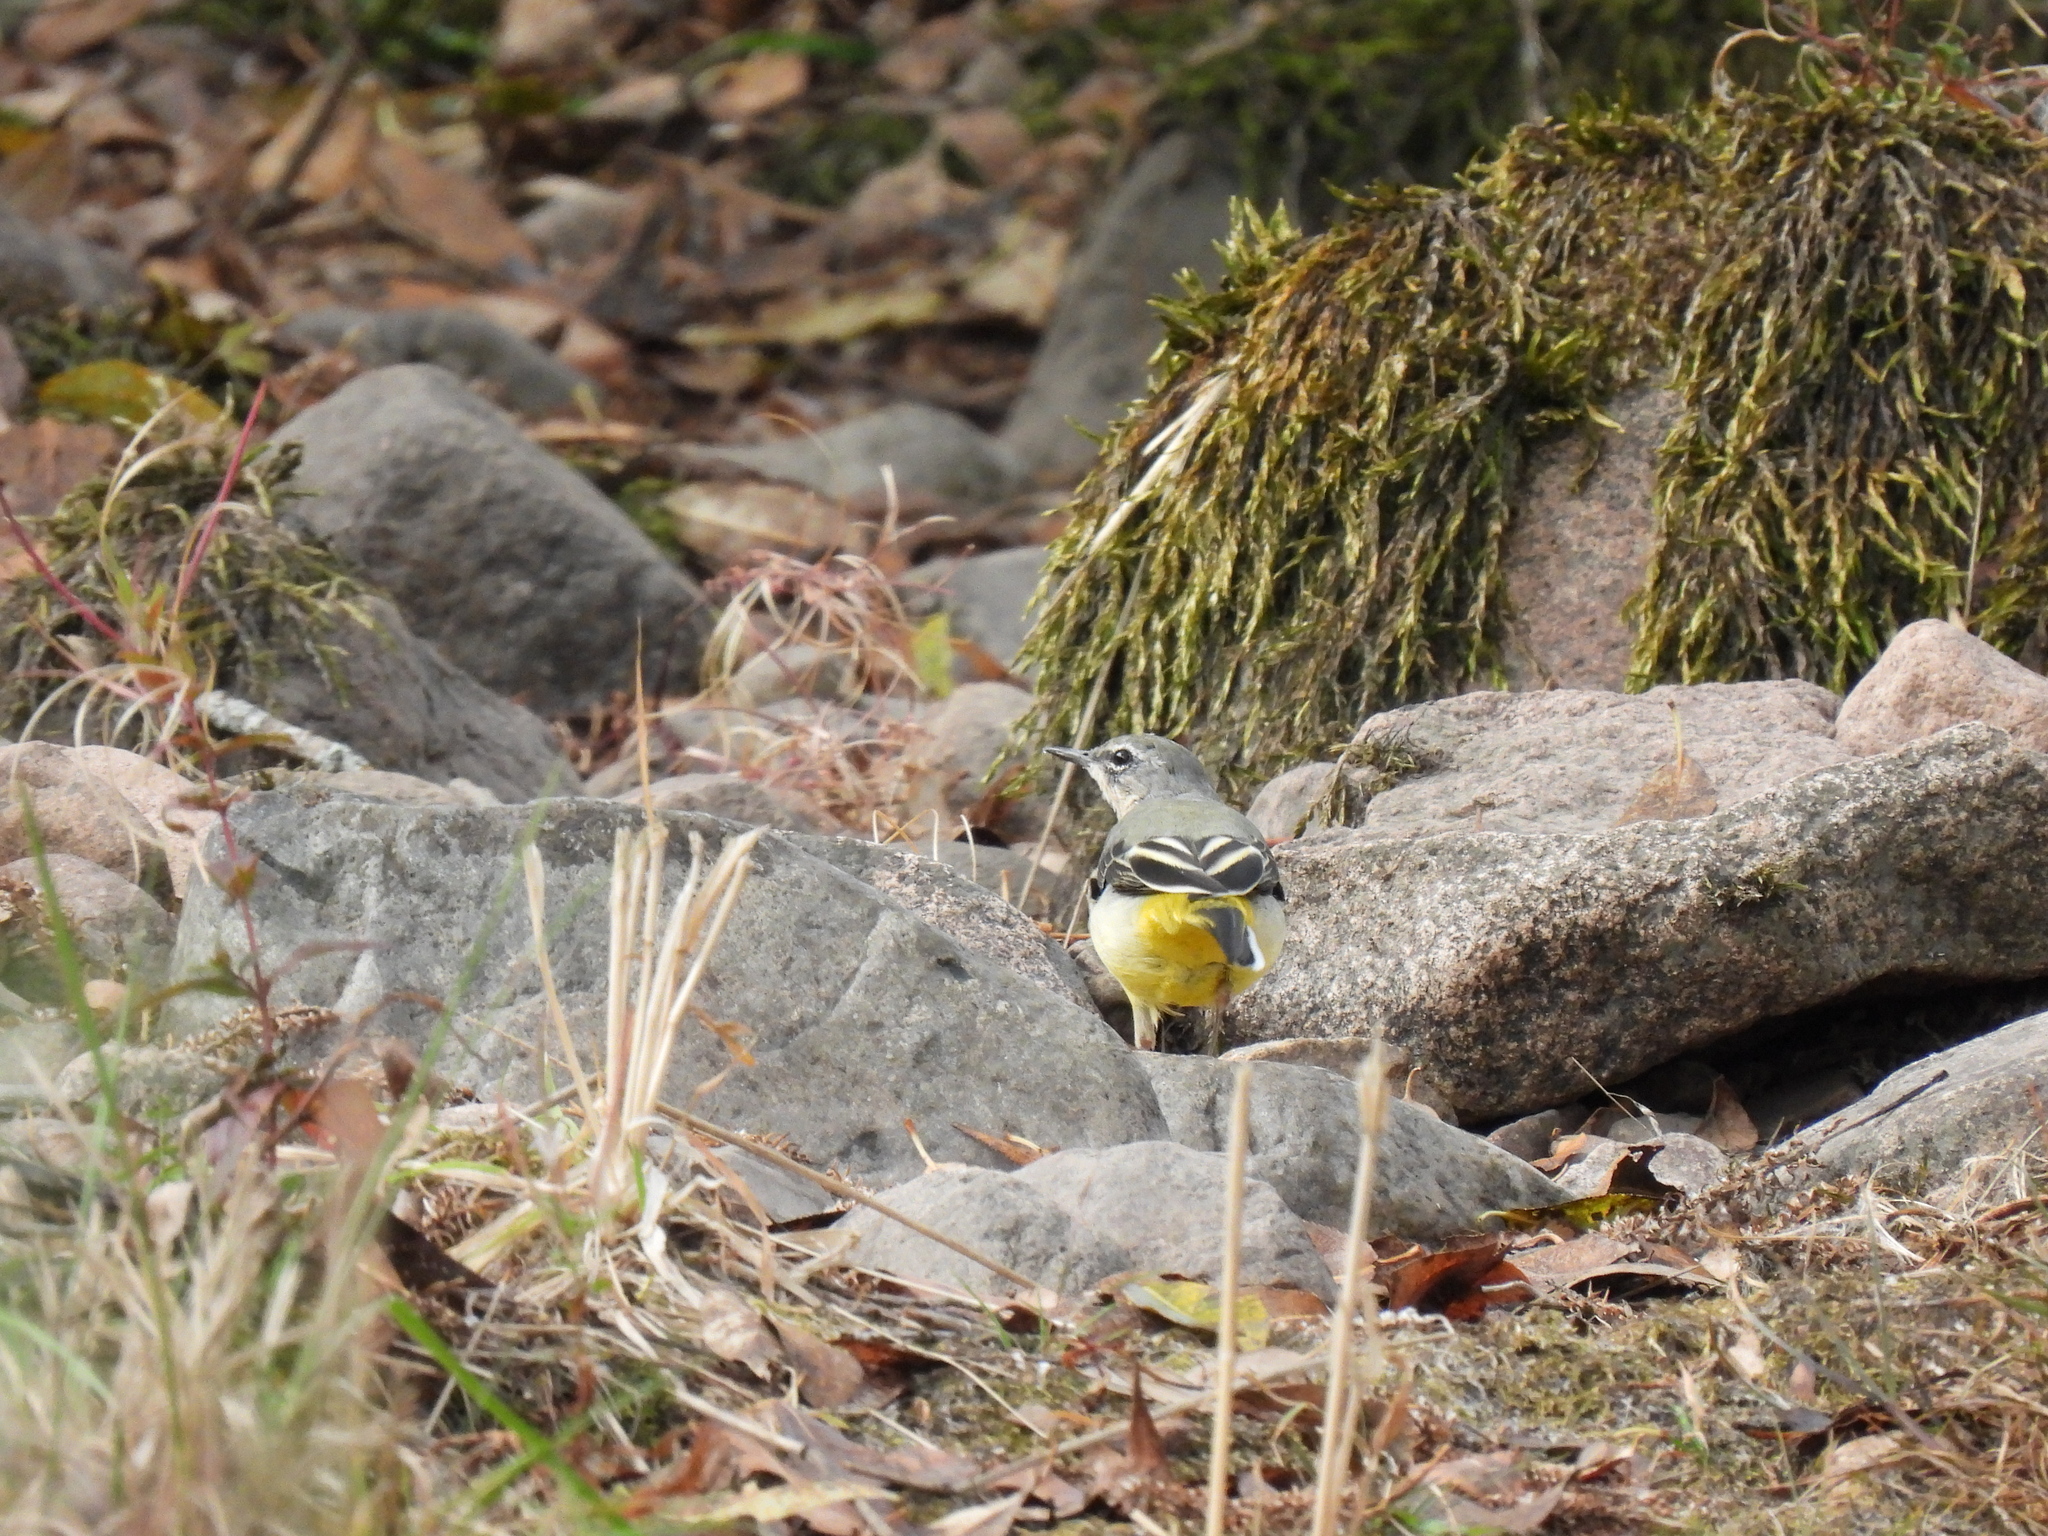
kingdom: Animalia
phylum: Chordata
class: Aves
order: Passeriformes
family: Motacillidae
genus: Motacilla
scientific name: Motacilla cinerea
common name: Grey wagtail
